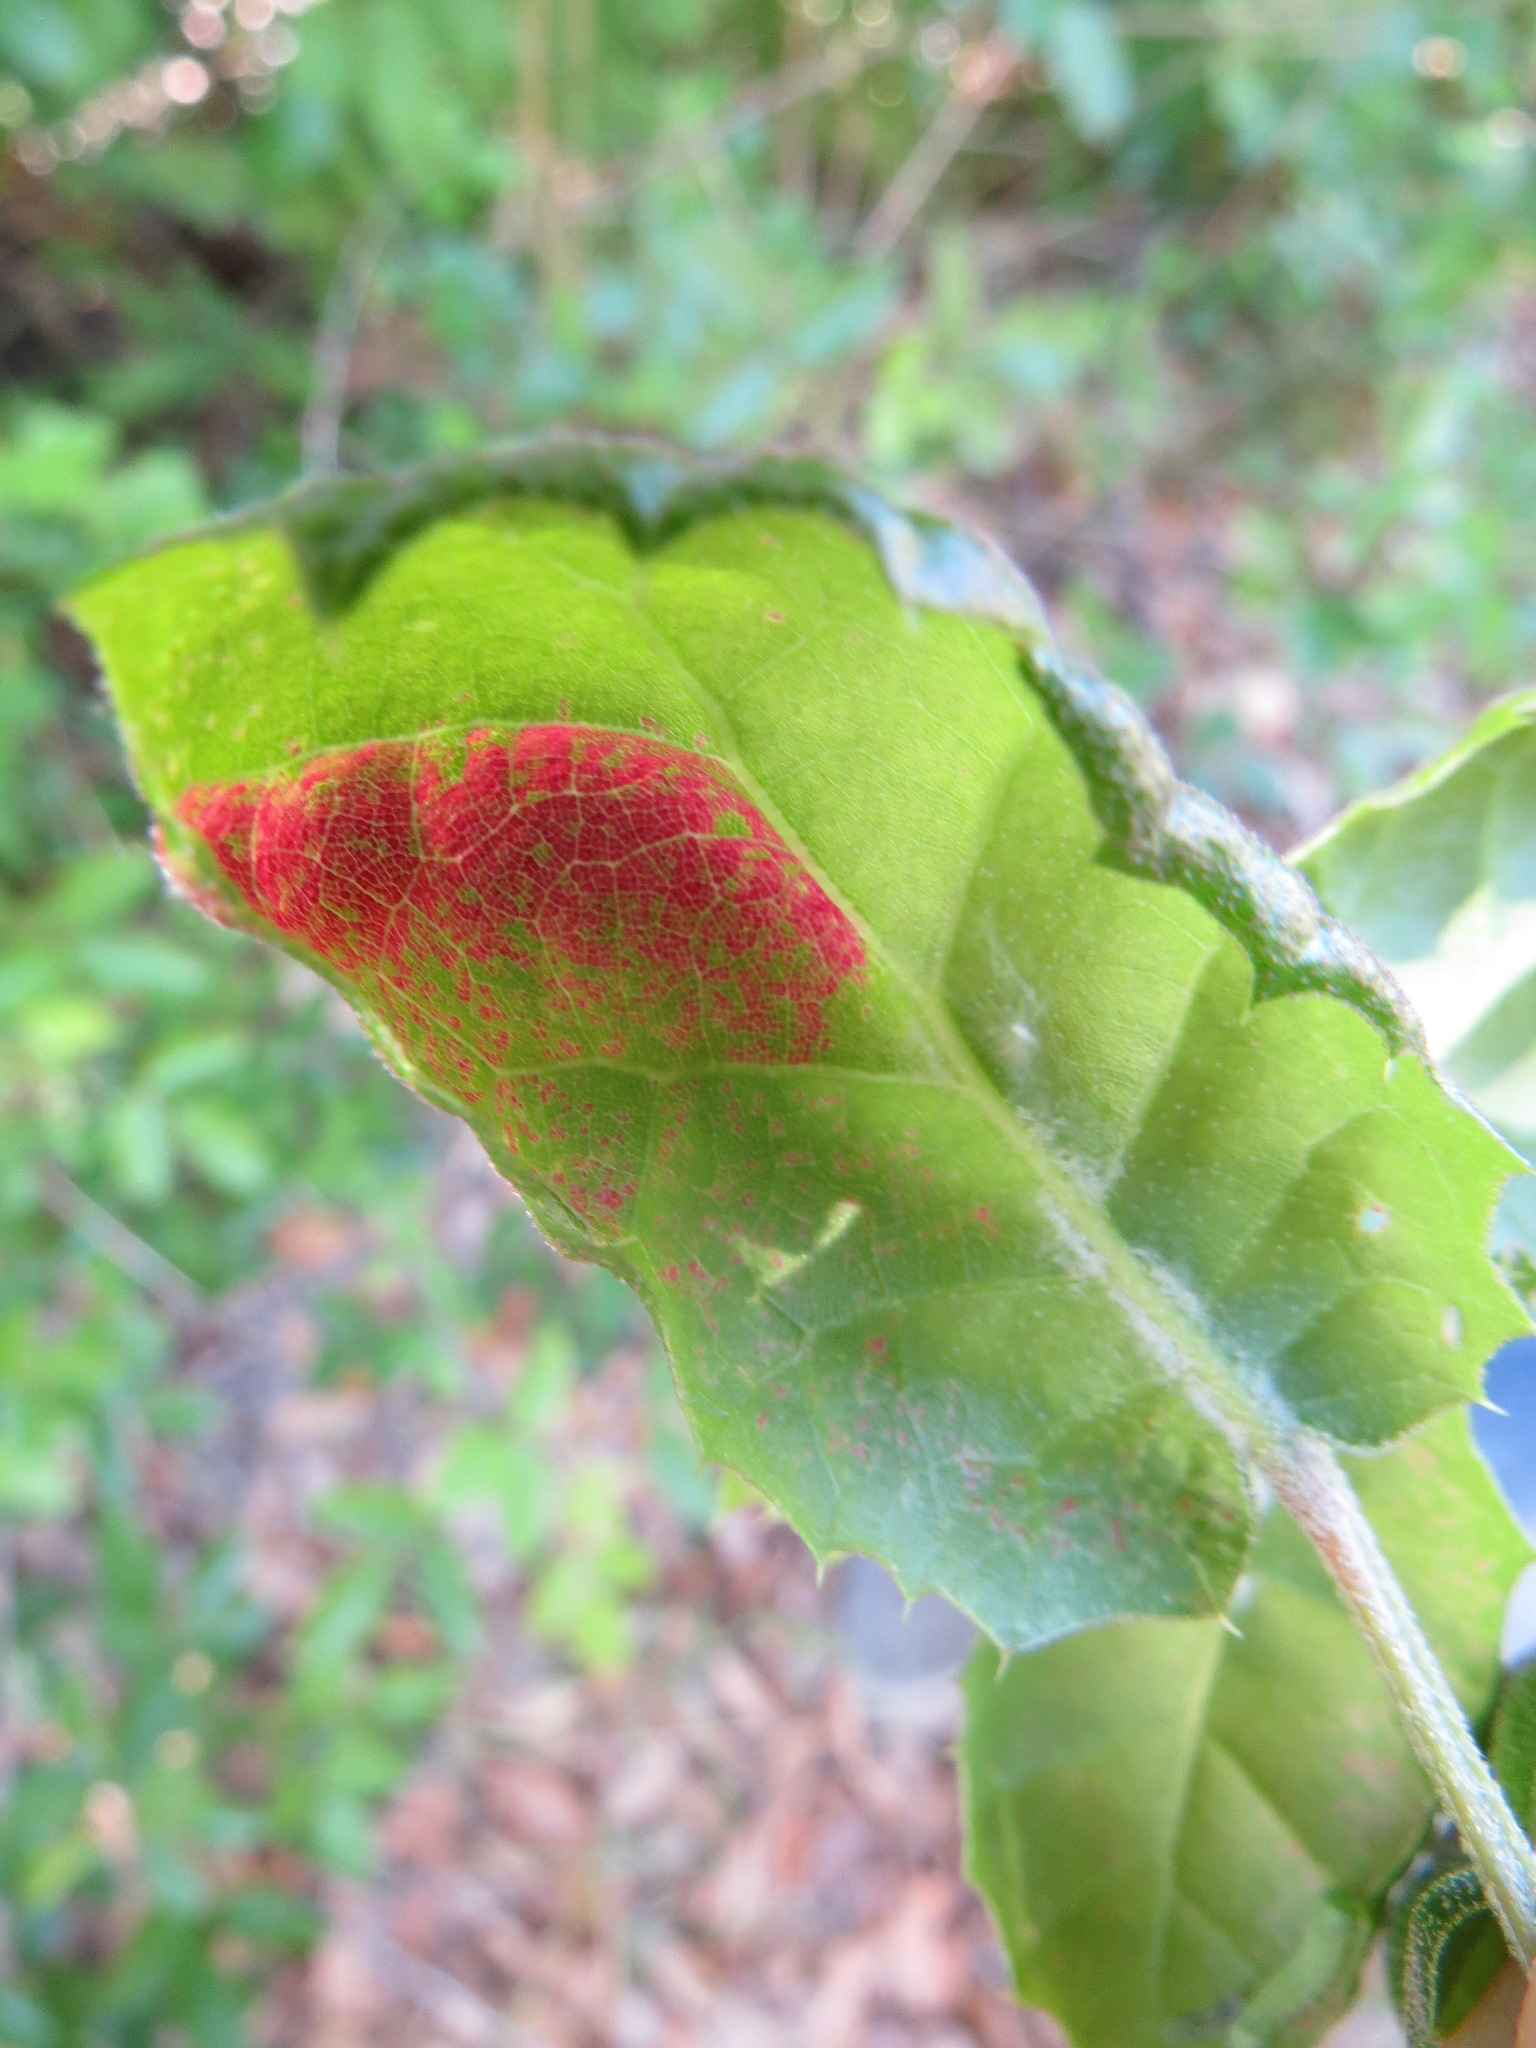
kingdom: Plantae
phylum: Tracheophyta
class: Magnoliopsida
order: Fagales
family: Fagaceae
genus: Quercus
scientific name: Quercus agrifolia
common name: California live oak
